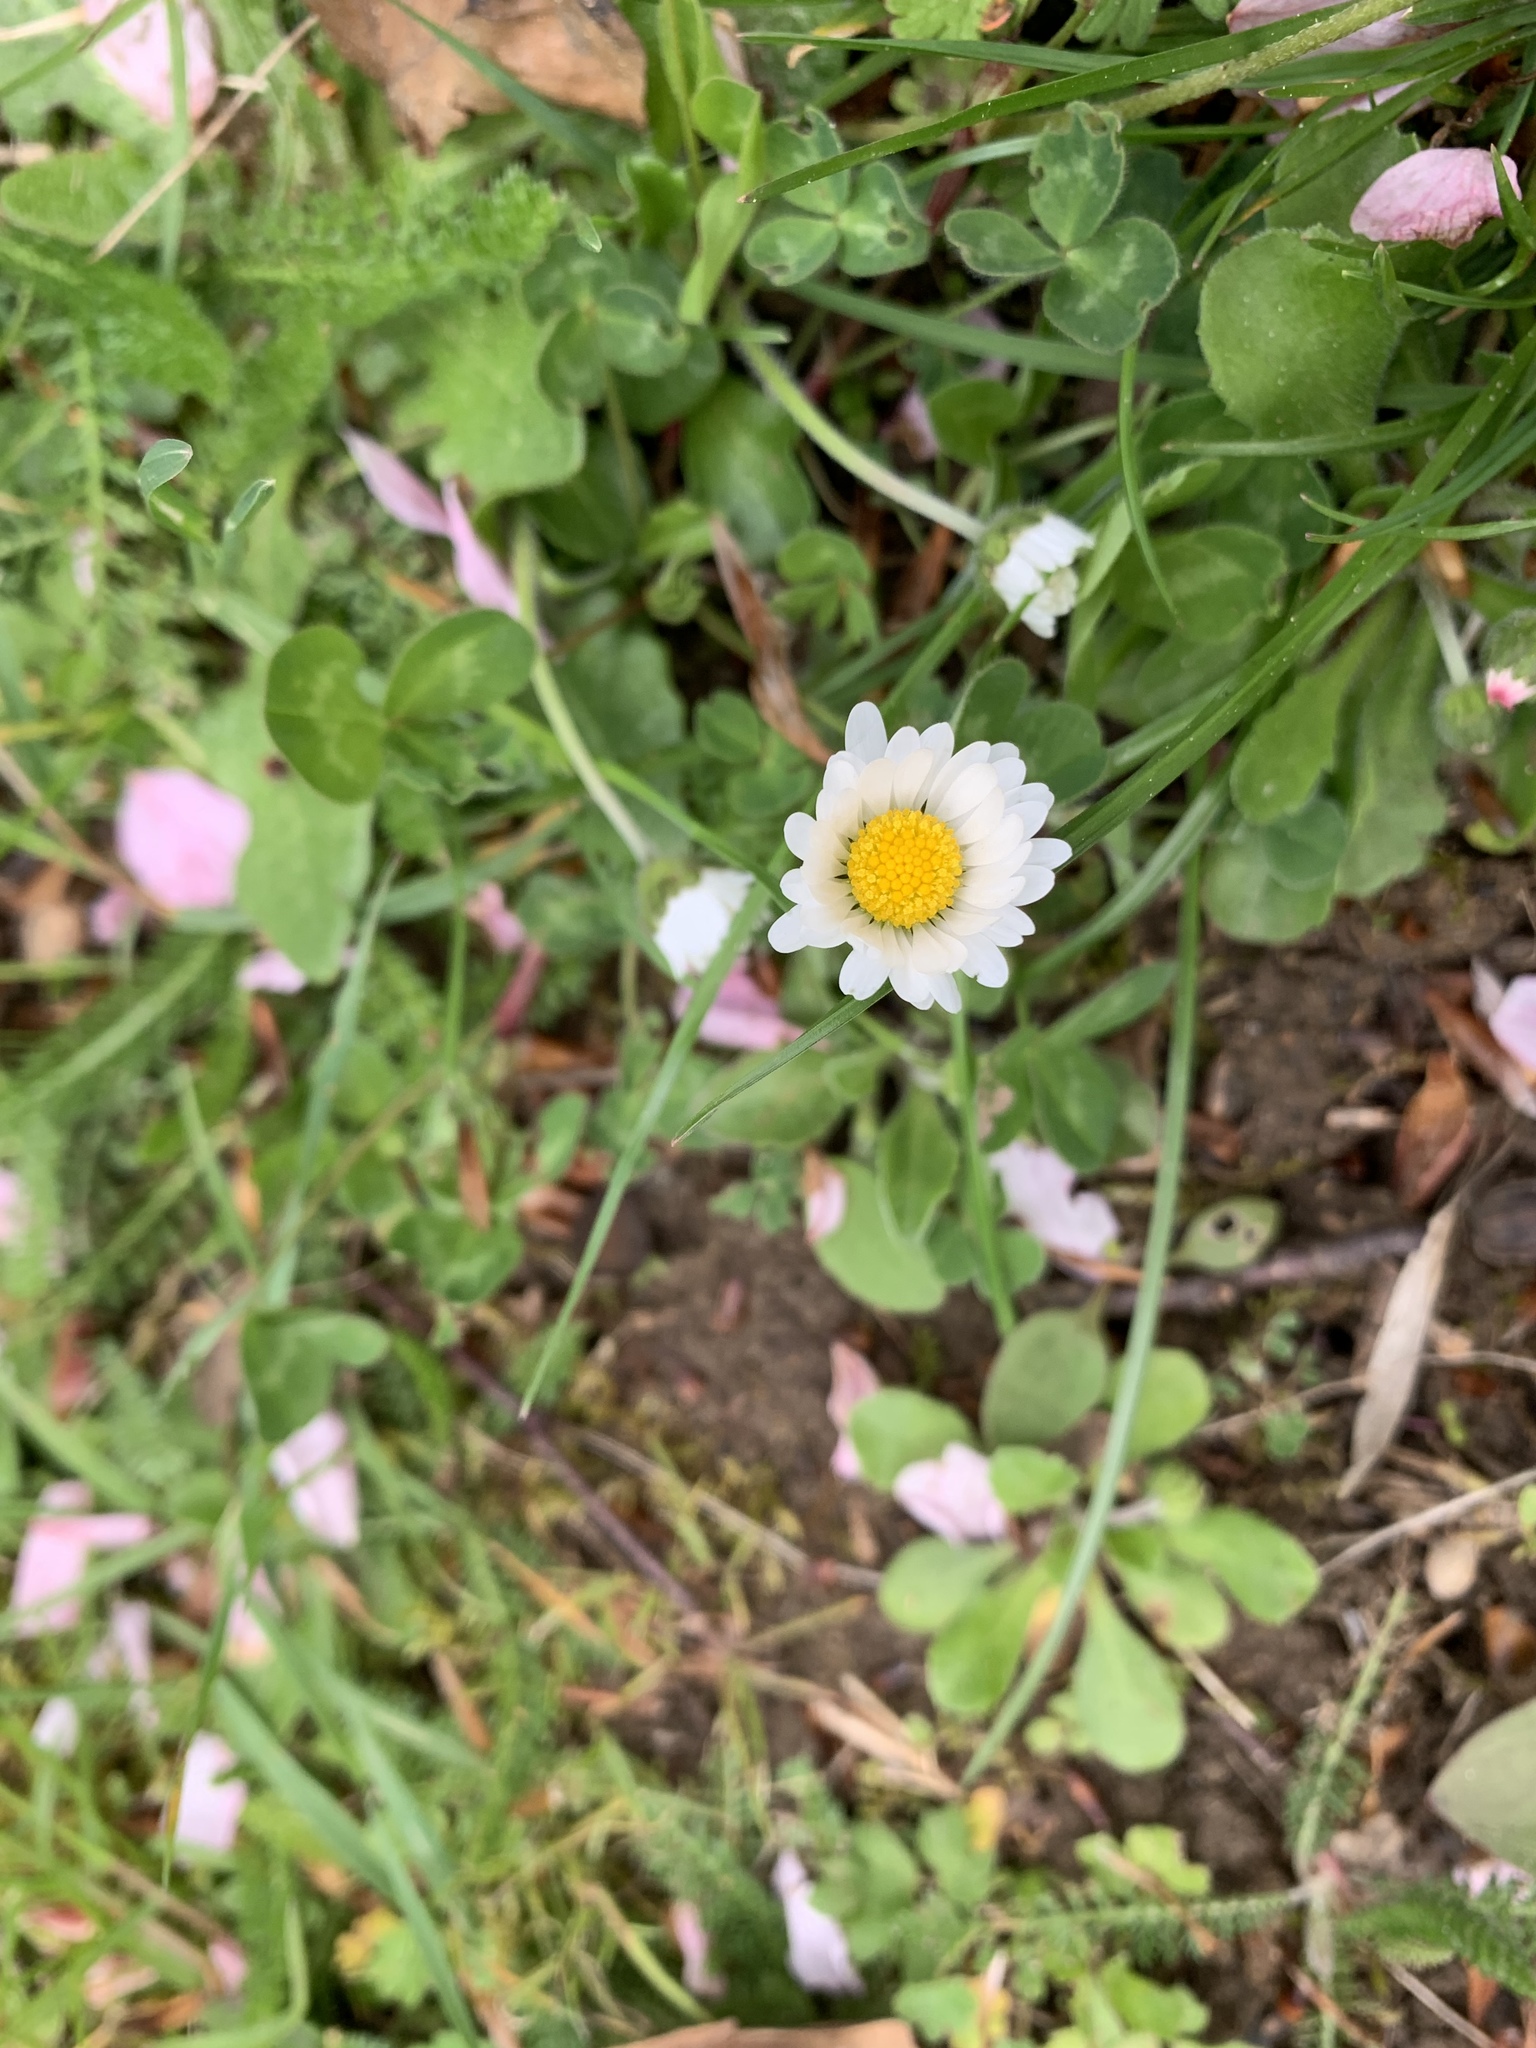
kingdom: Plantae
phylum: Tracheophyta
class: Magnoliopsida
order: Asterales
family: Asteraceae
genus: Bellis
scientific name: Bellis perennis
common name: Lawndaisy
